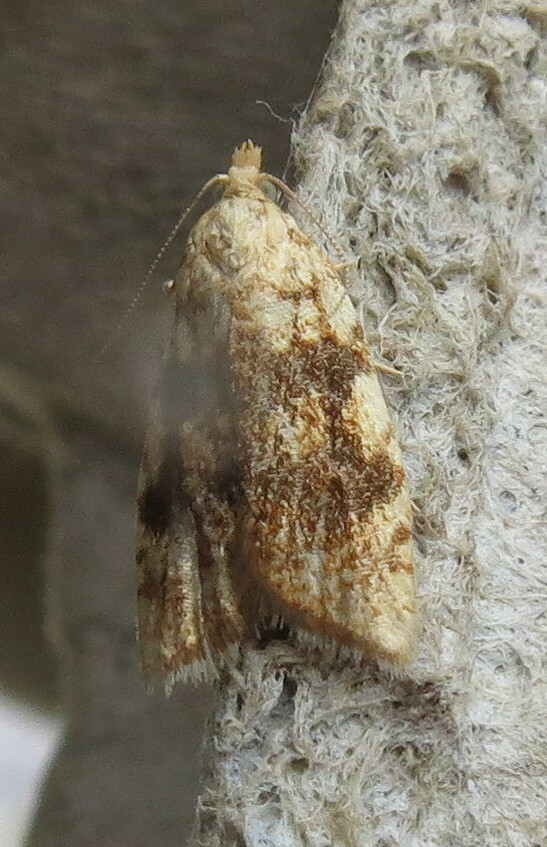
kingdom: Animalia
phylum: Arthropoda
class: Insecta
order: Lepidoptera
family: Tortricidae
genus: Aleimma
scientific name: Aleimma loeflingiana
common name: Yellow oak button
